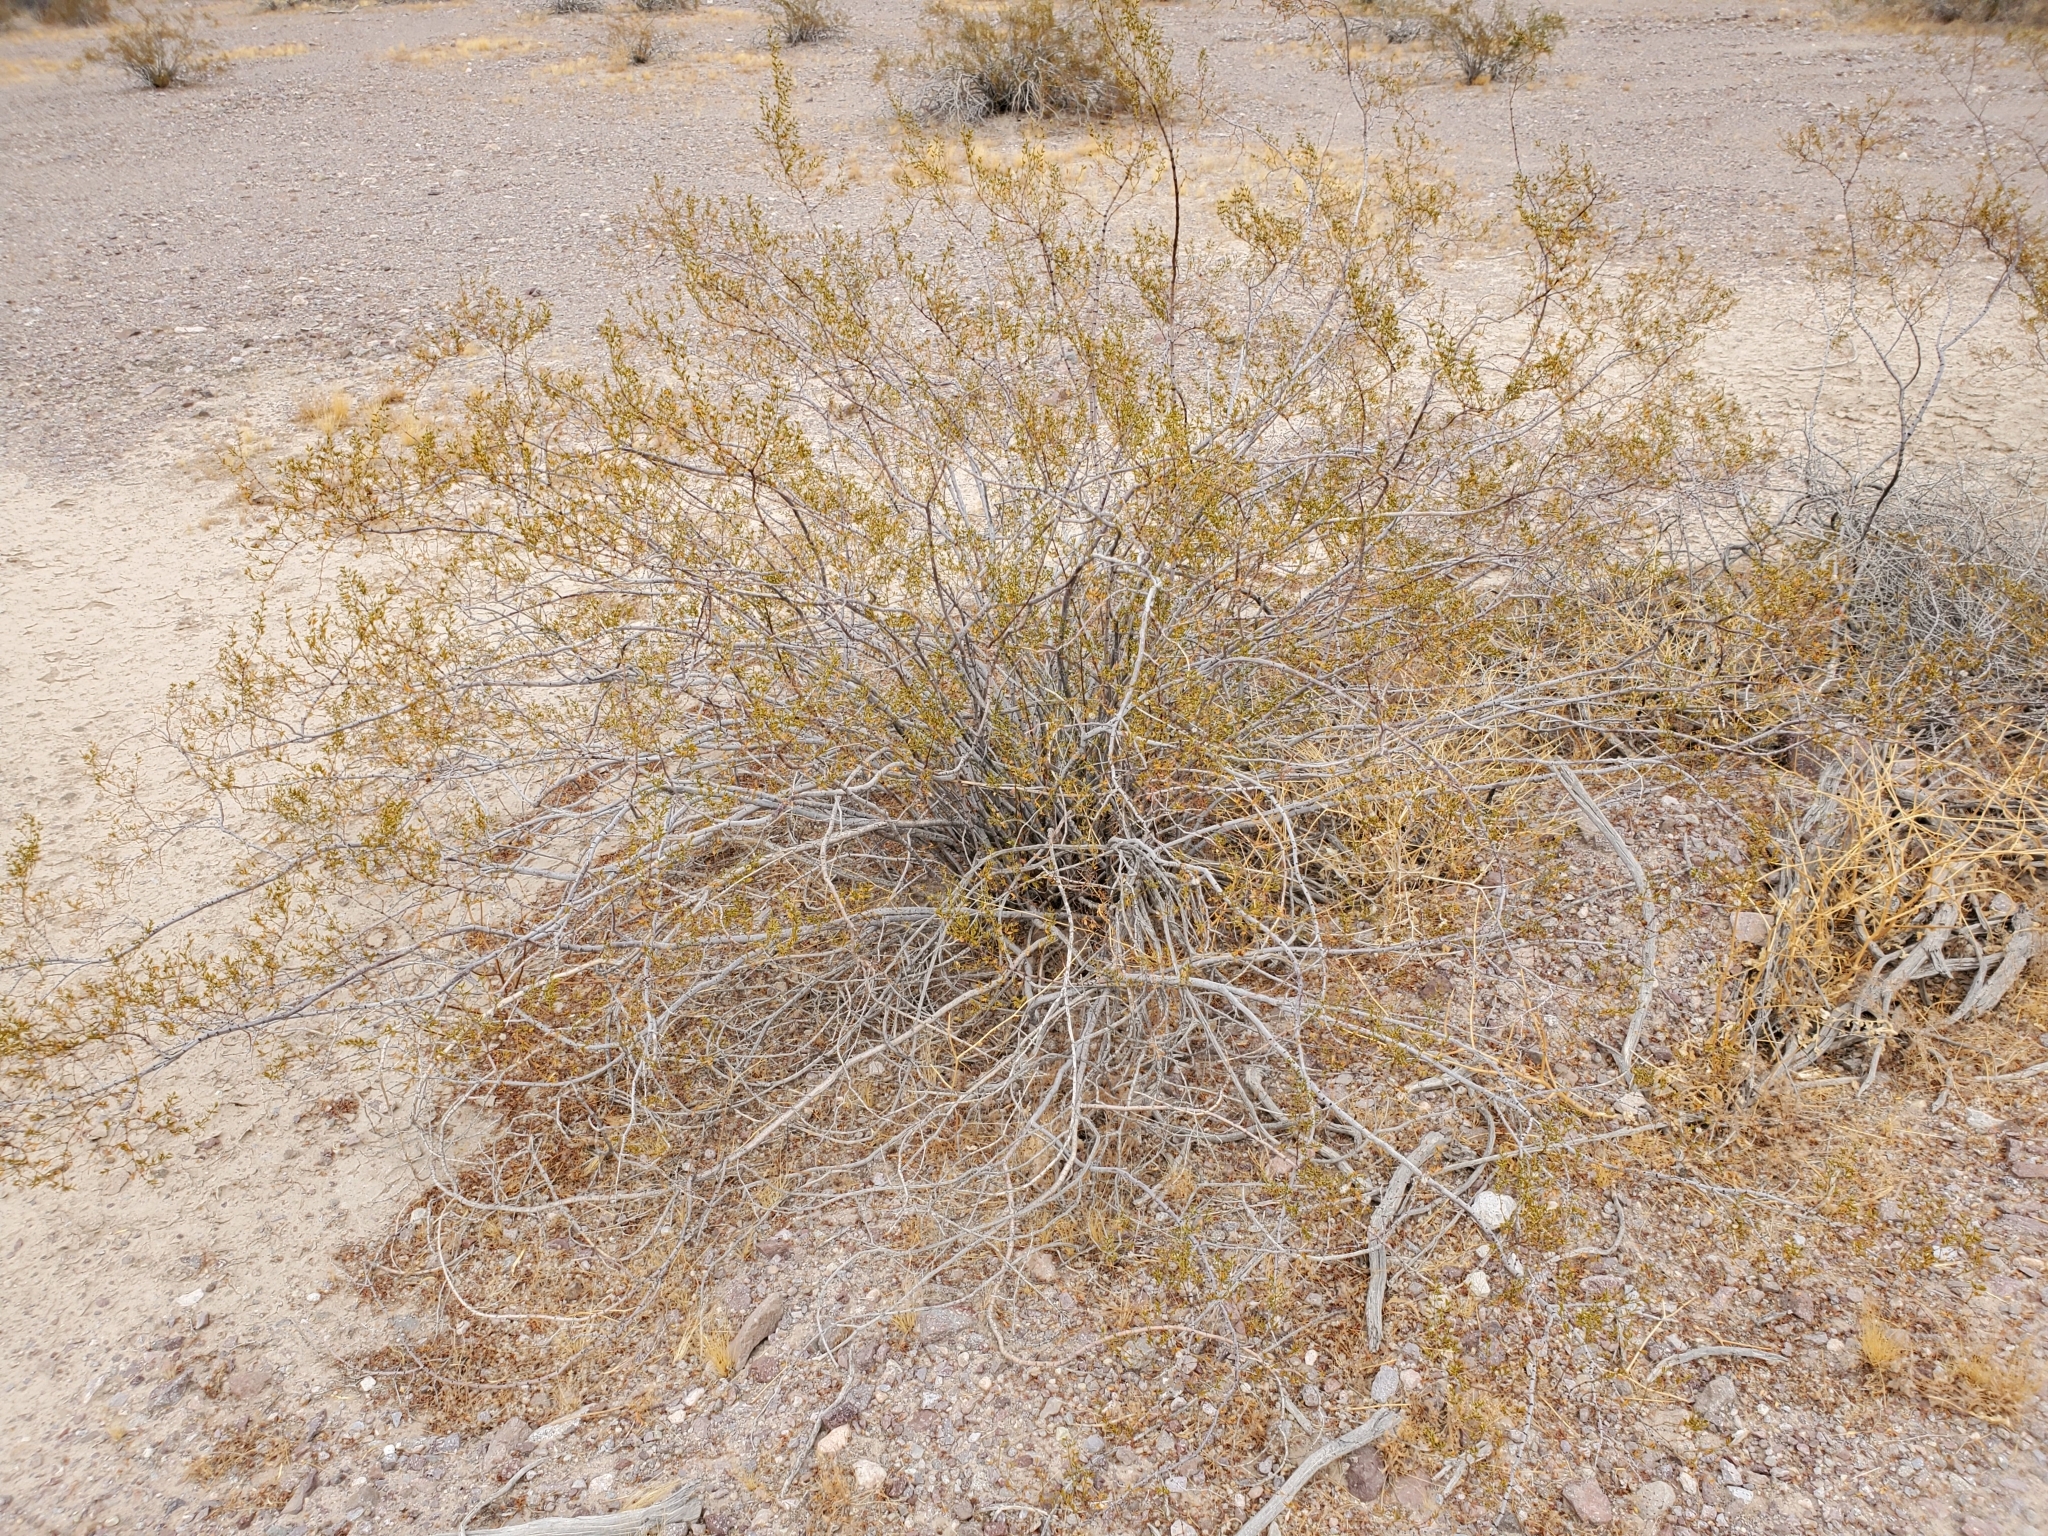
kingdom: Plantae
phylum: Tracheophyta
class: Magnoliopsida
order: Zygophyllales
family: Zygophyllaceae
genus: Larrea
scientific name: Larrea tridentata
